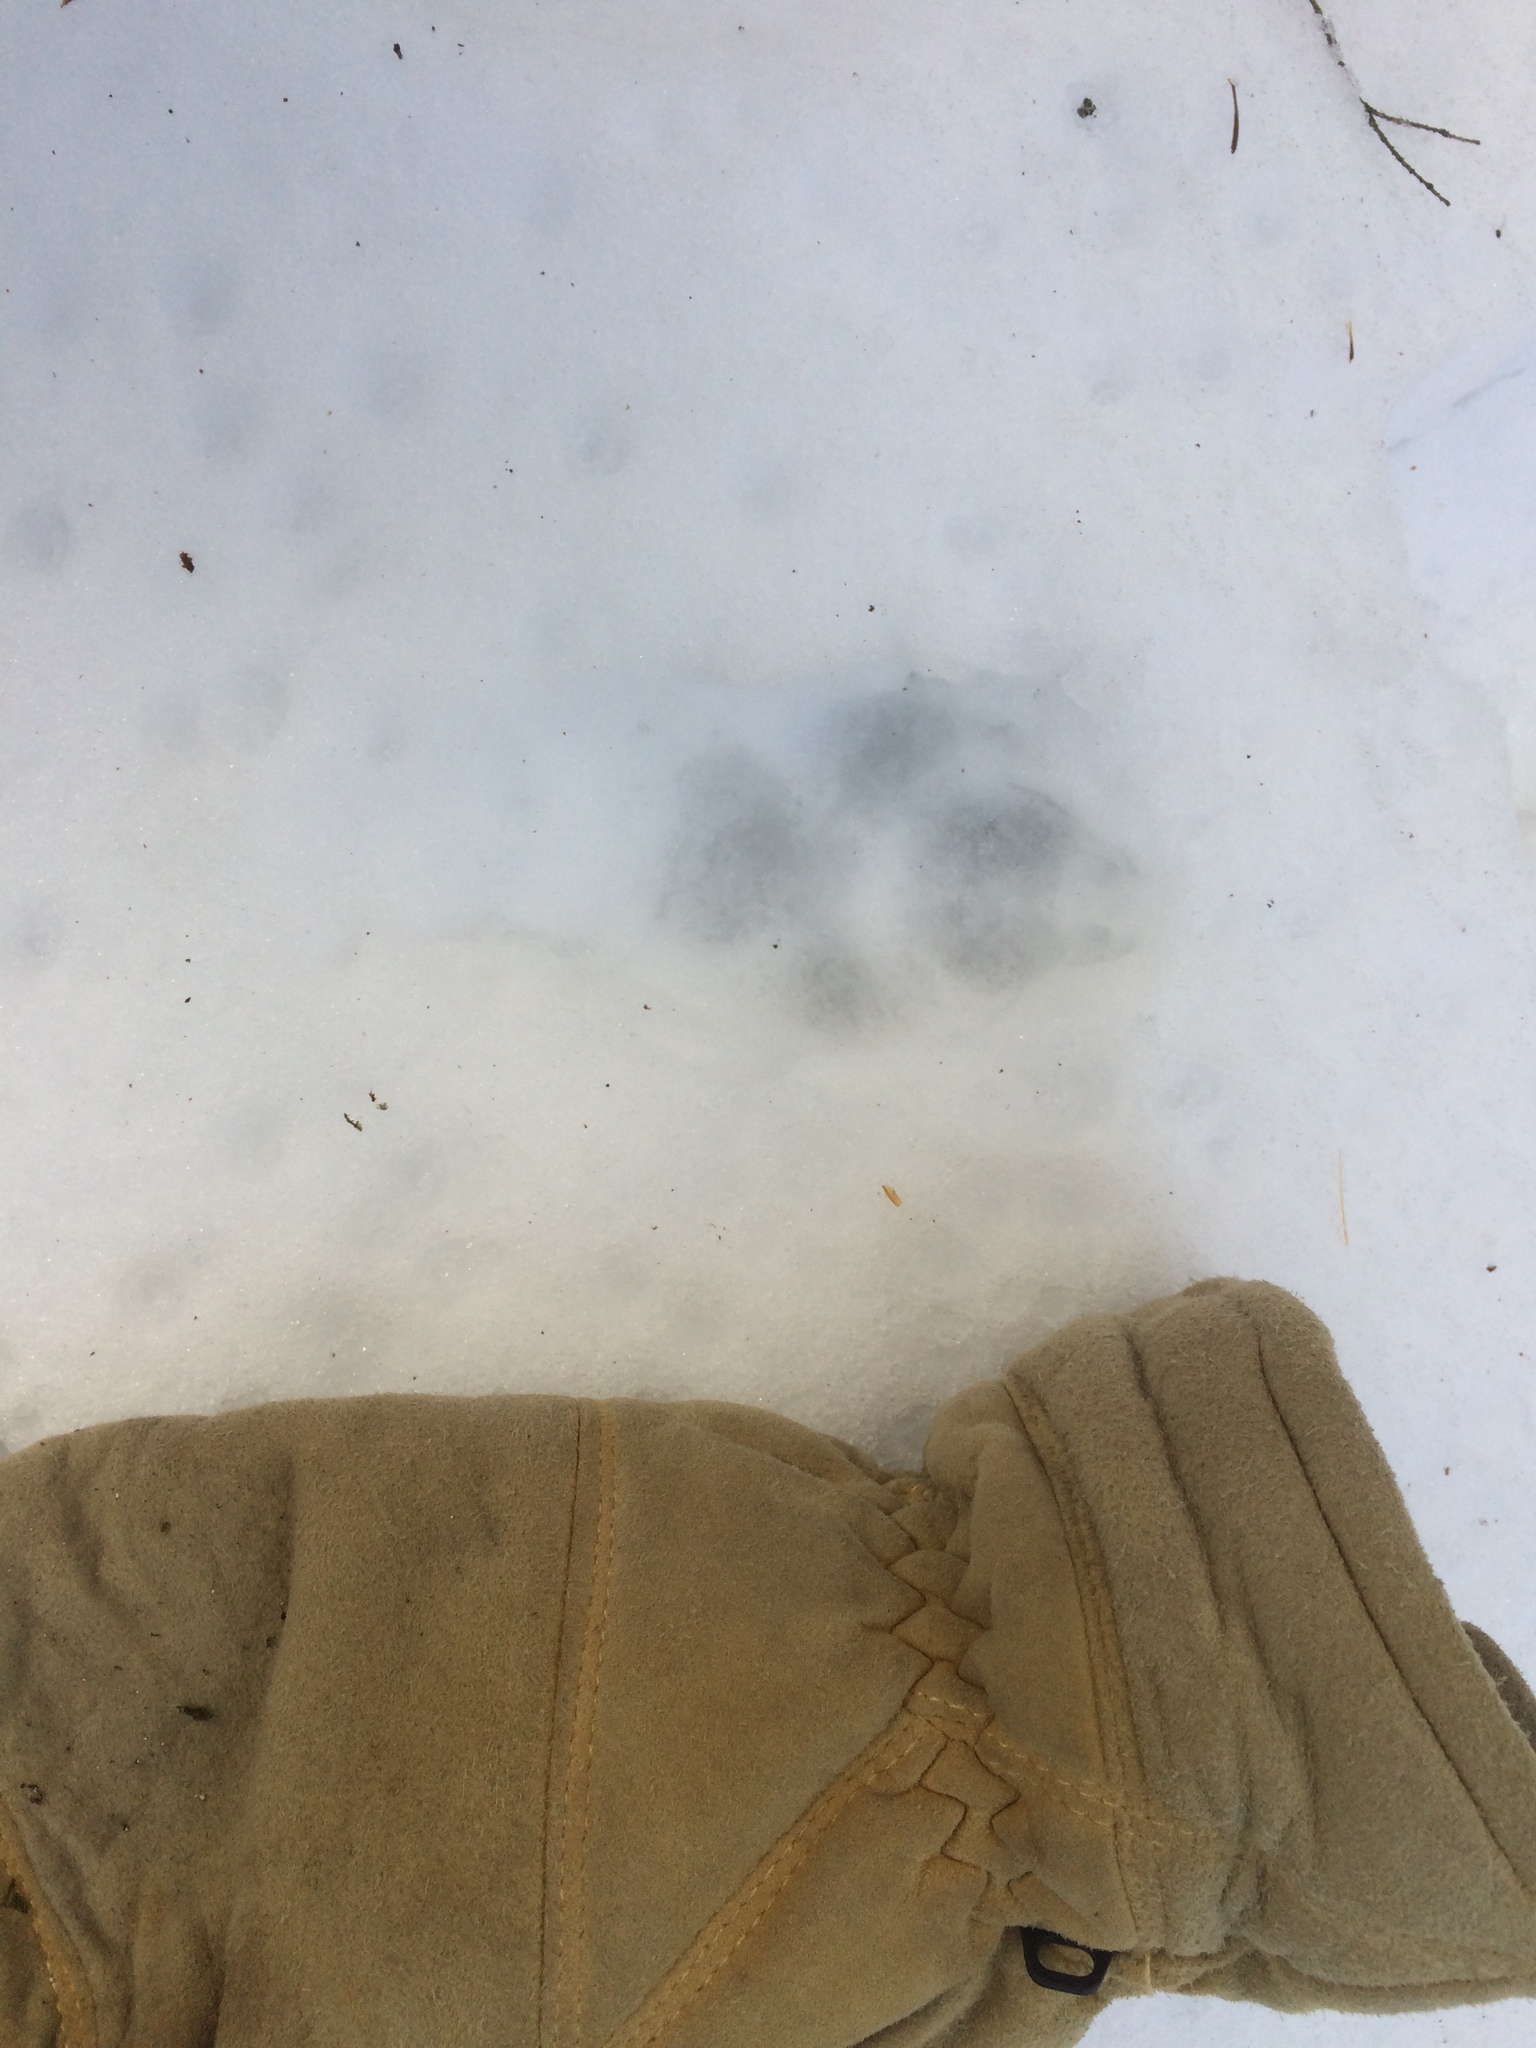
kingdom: Animalia
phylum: Chordata
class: Mammalia
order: Carnivora
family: Canidae
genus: Canis
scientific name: Canis latrans
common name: Coyote
